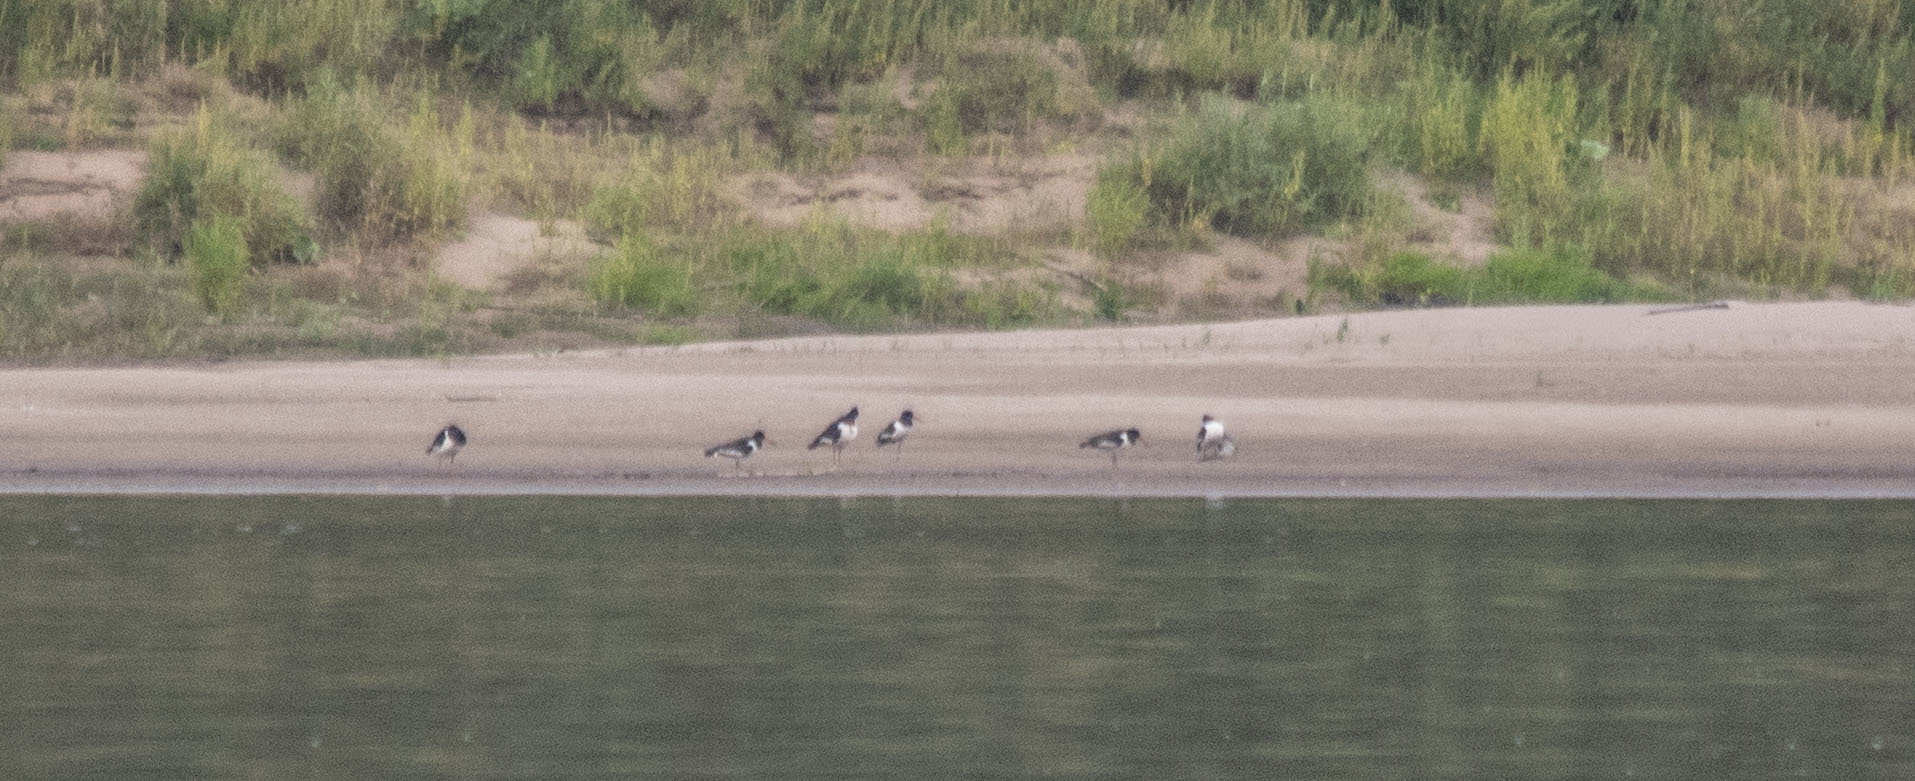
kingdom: Animalia
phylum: Chordata
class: Aves
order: Charadriiformes
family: Haematopodidae
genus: Haematopus
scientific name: Haematopus ostralegus
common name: Eurasian oystercatcher
